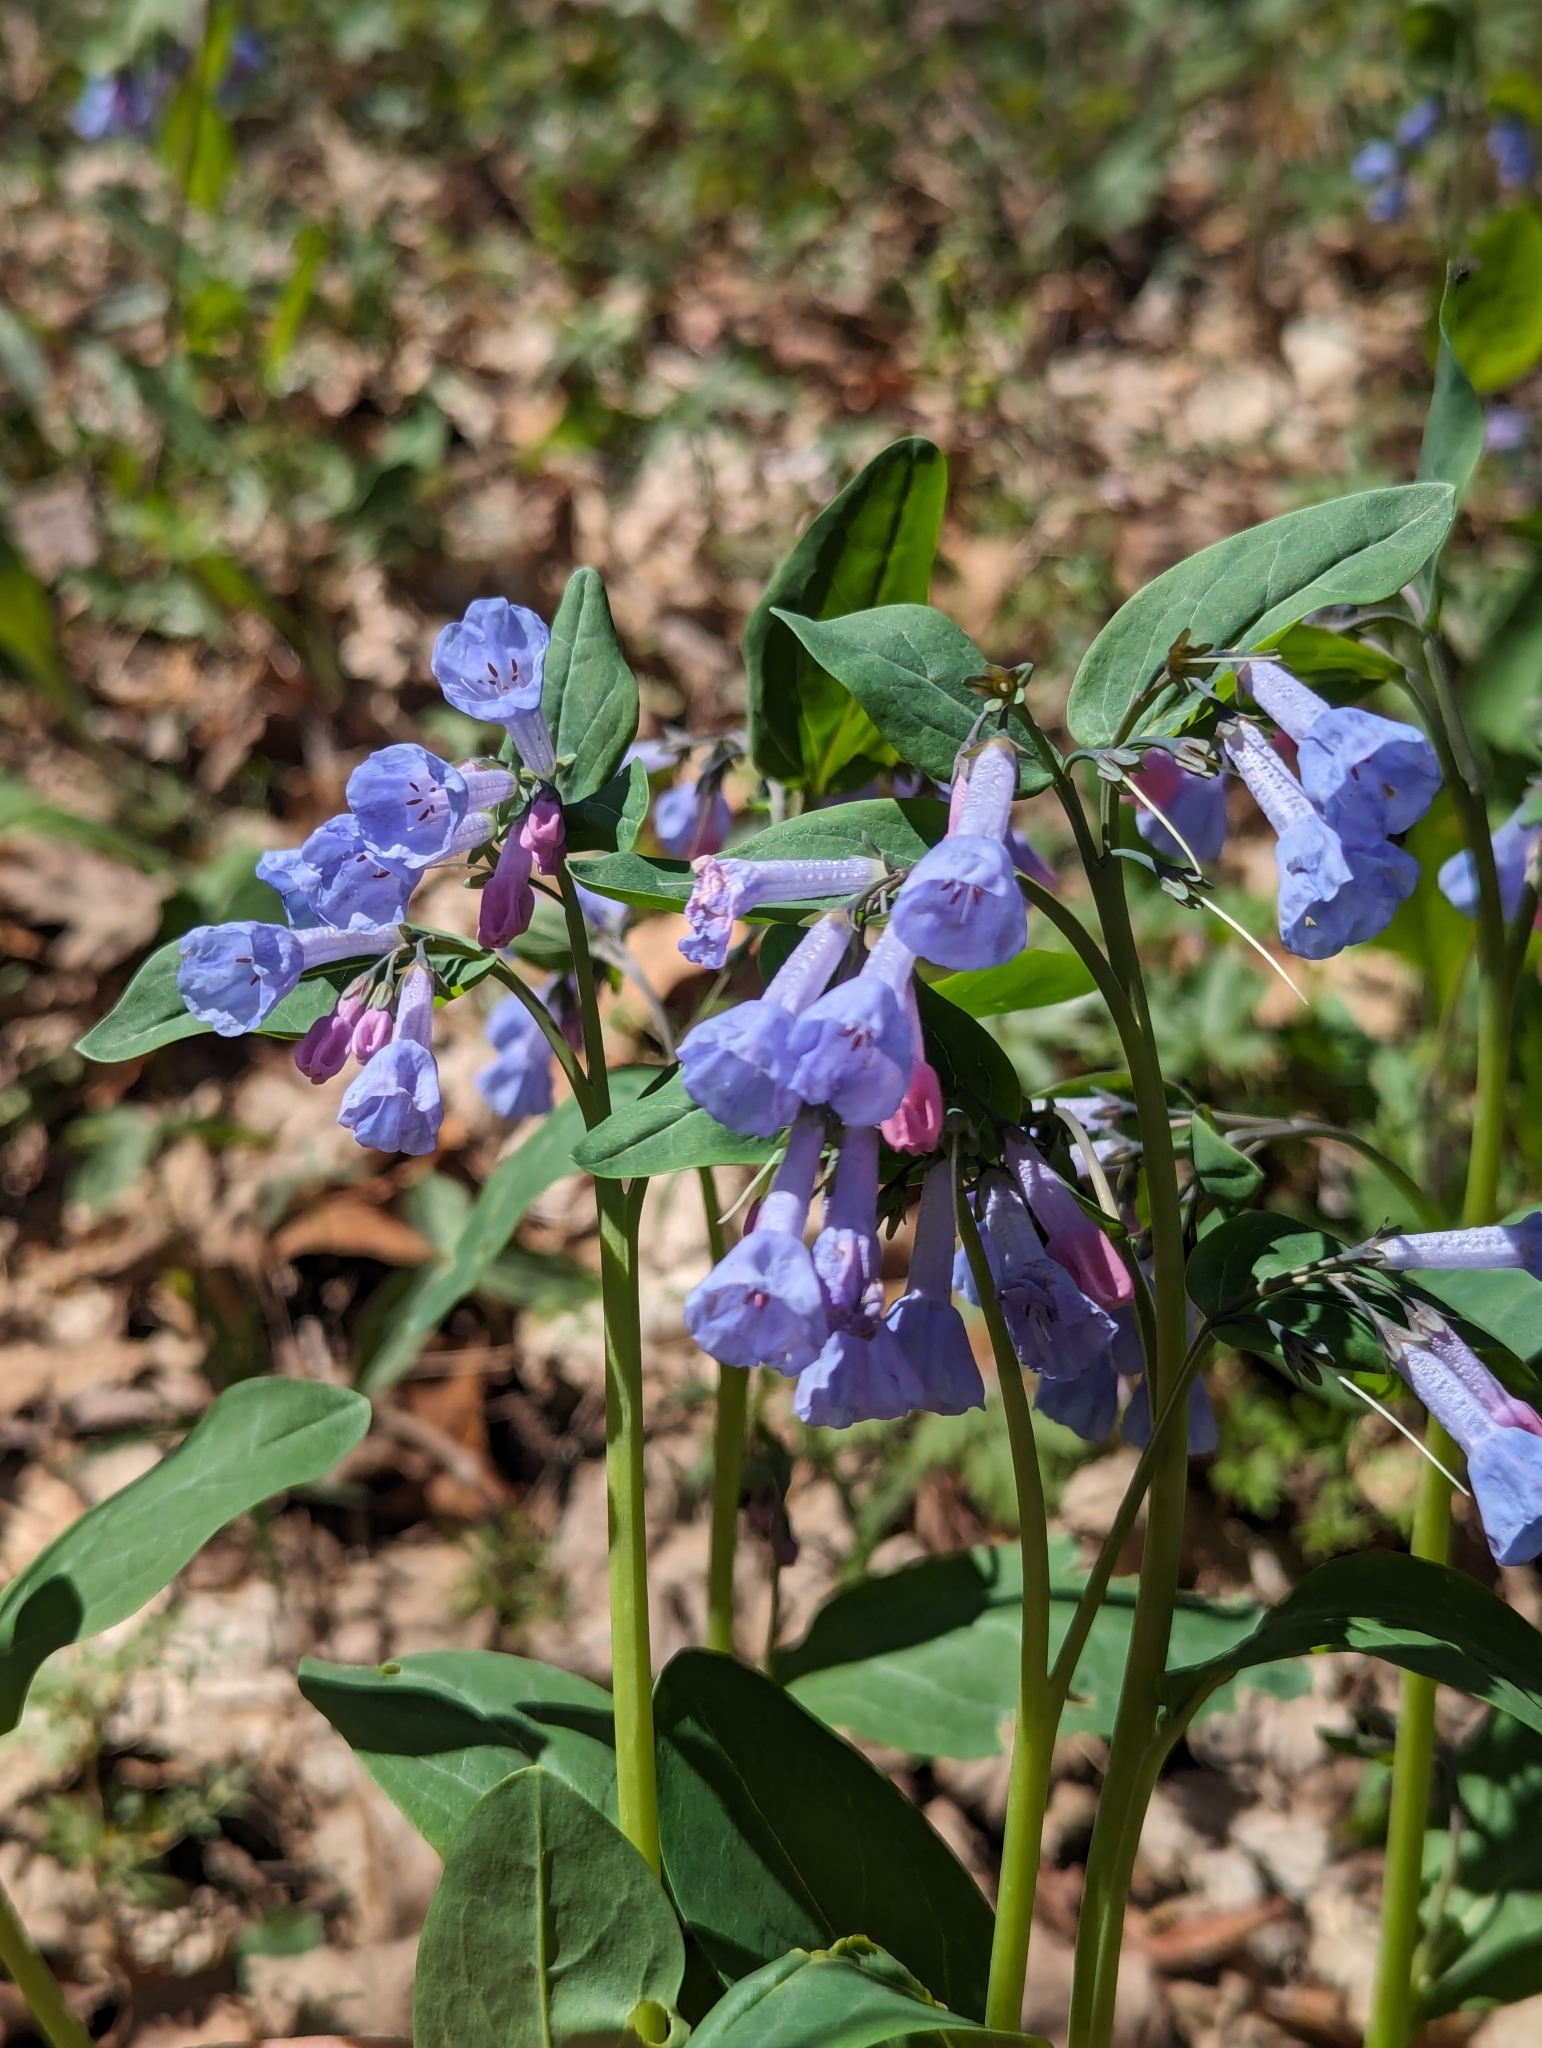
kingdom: Plantae
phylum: Tracheophyta
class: Magnoliopsida
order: Boraginales
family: Boraginaceae
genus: Mertensia
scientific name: Mertensia virginica
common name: Virginia bluebells
